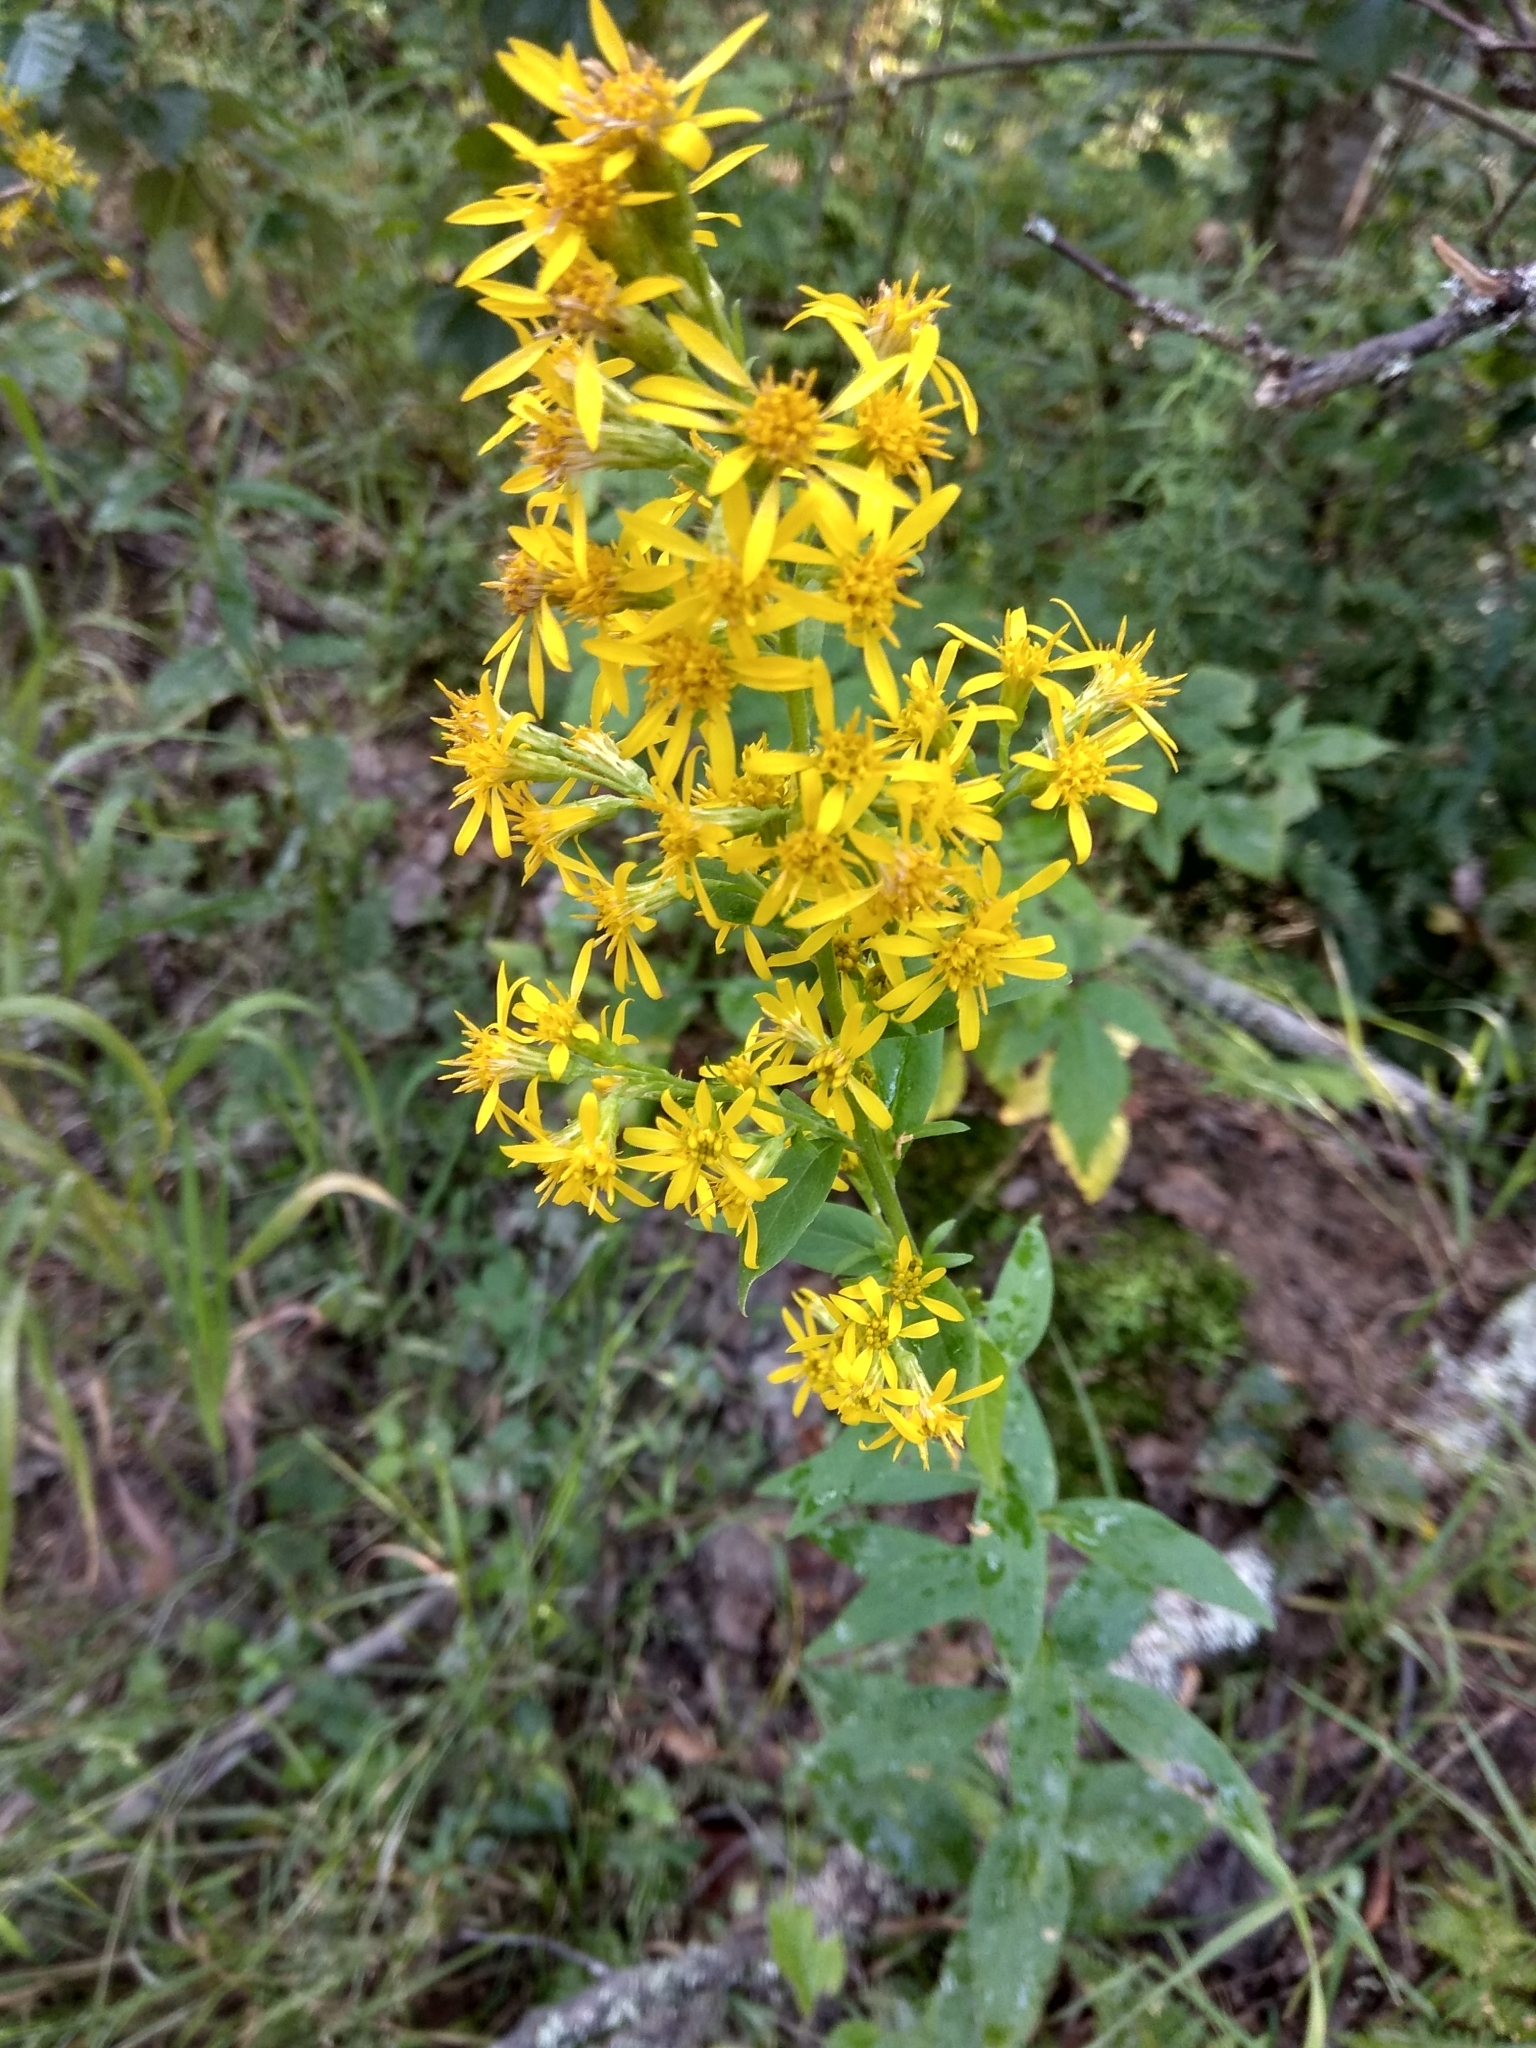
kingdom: Plantae
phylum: Tracheophyta
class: Magnoliopsida
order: Asterales
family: Asteraceae
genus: Solidago
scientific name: Solidago virgaurea
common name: Goldenrod
